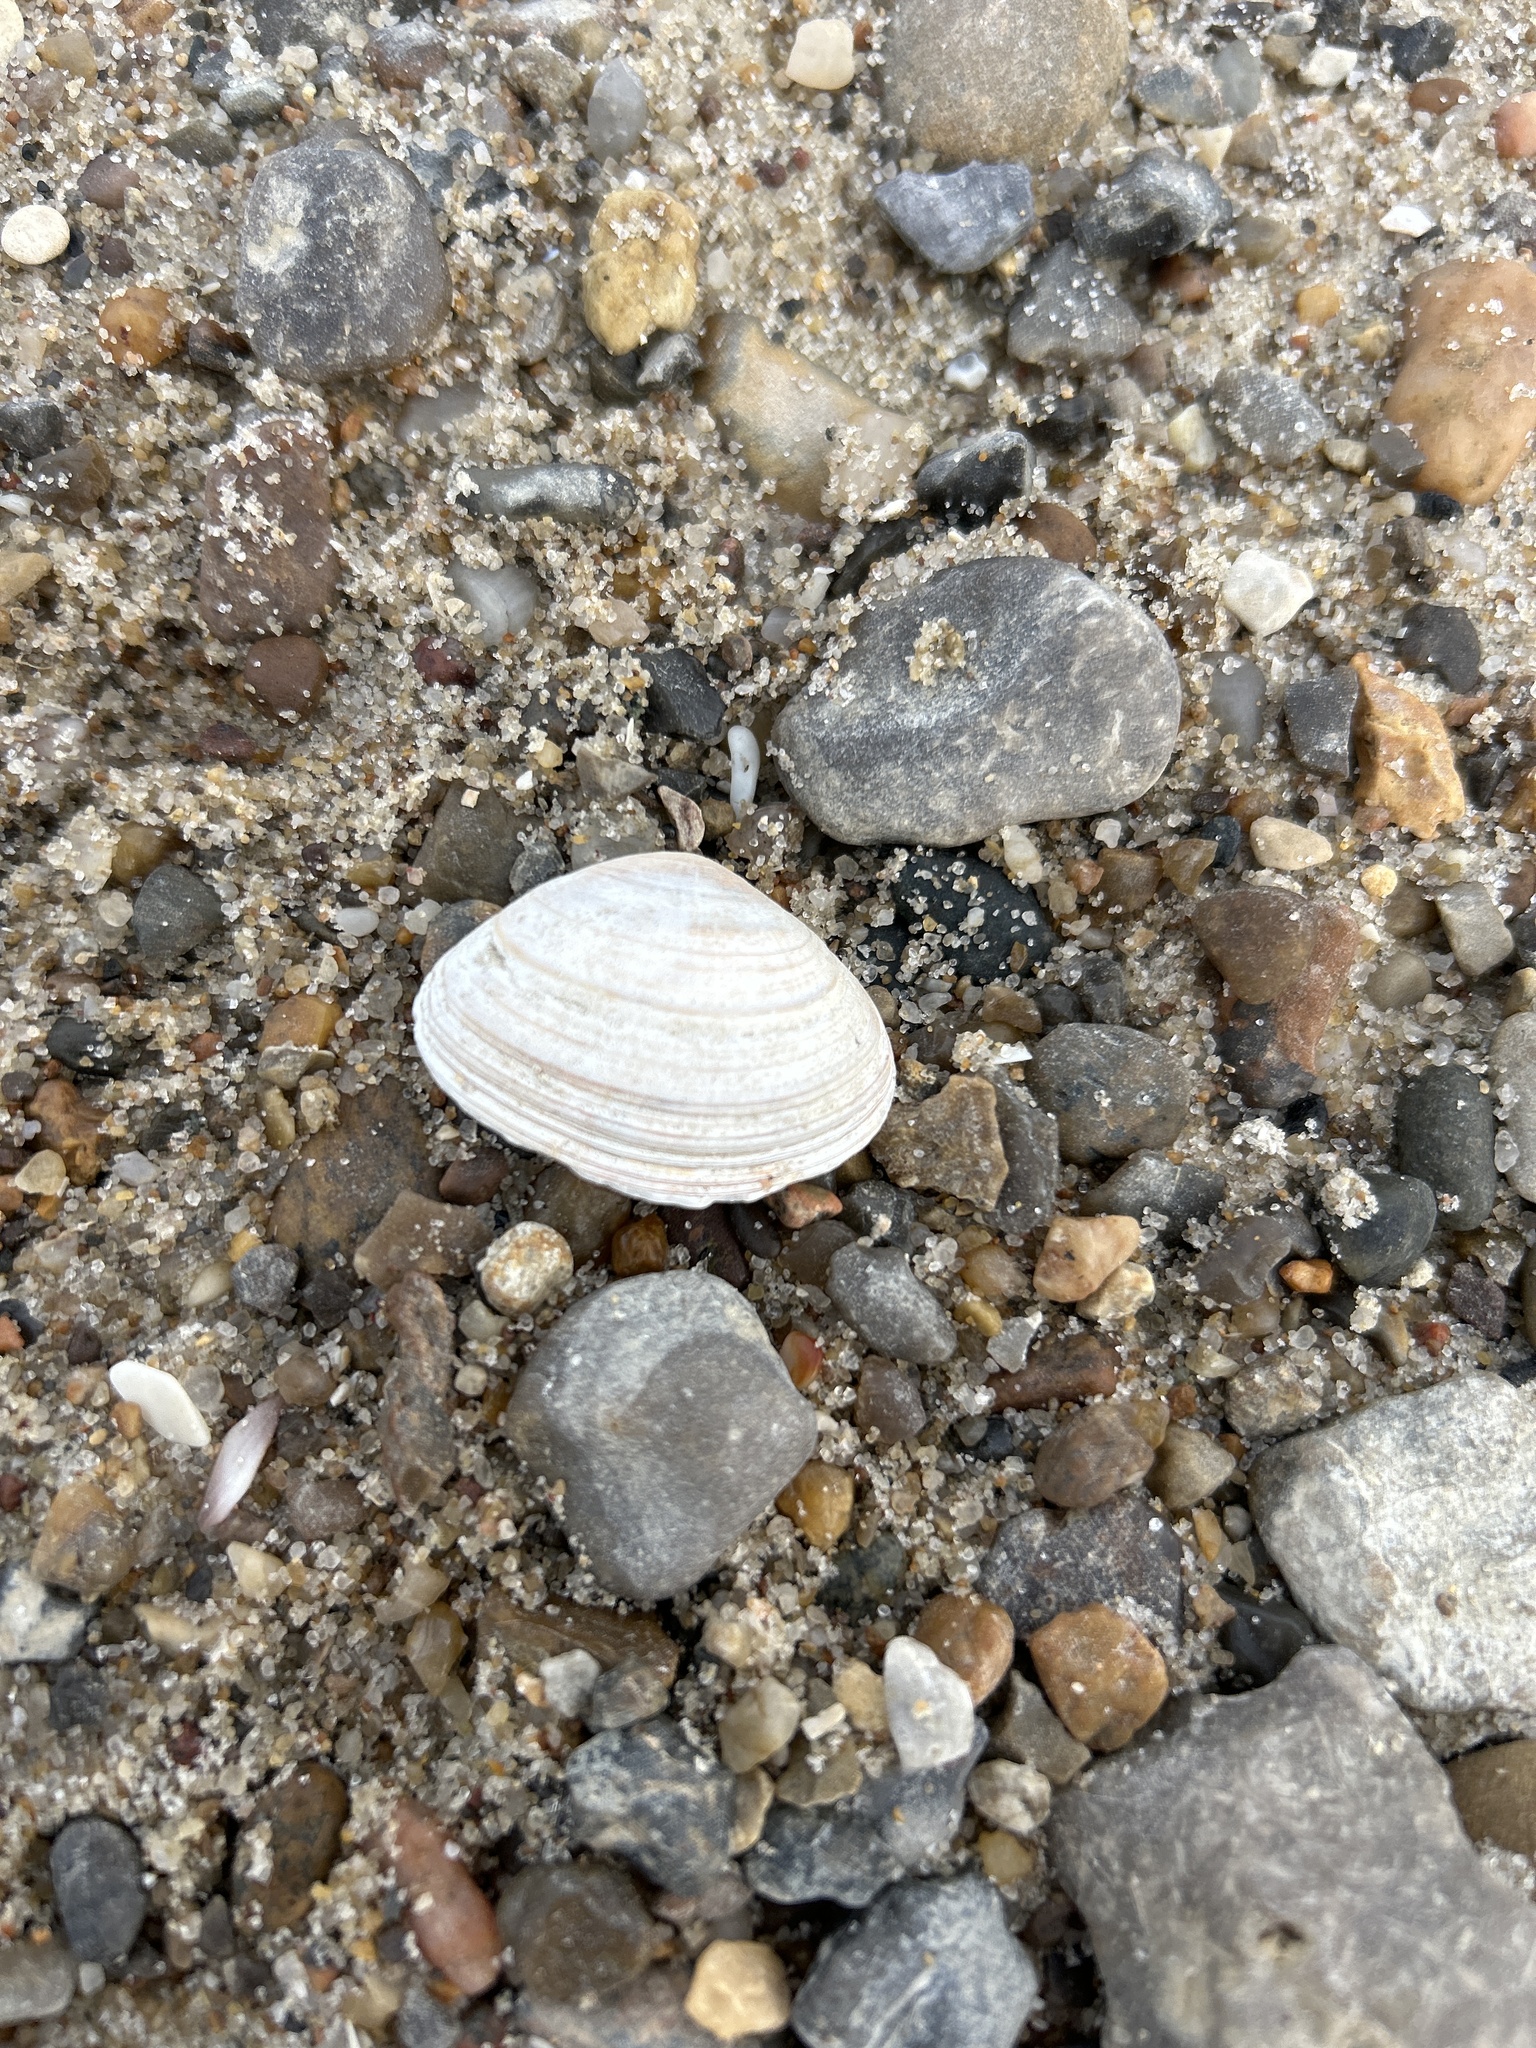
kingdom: Animalia
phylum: Mollusca
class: Bivalvia
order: Myida
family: Myidae
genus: Mya
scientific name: Mya arenaria
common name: Soft-shelled clam
